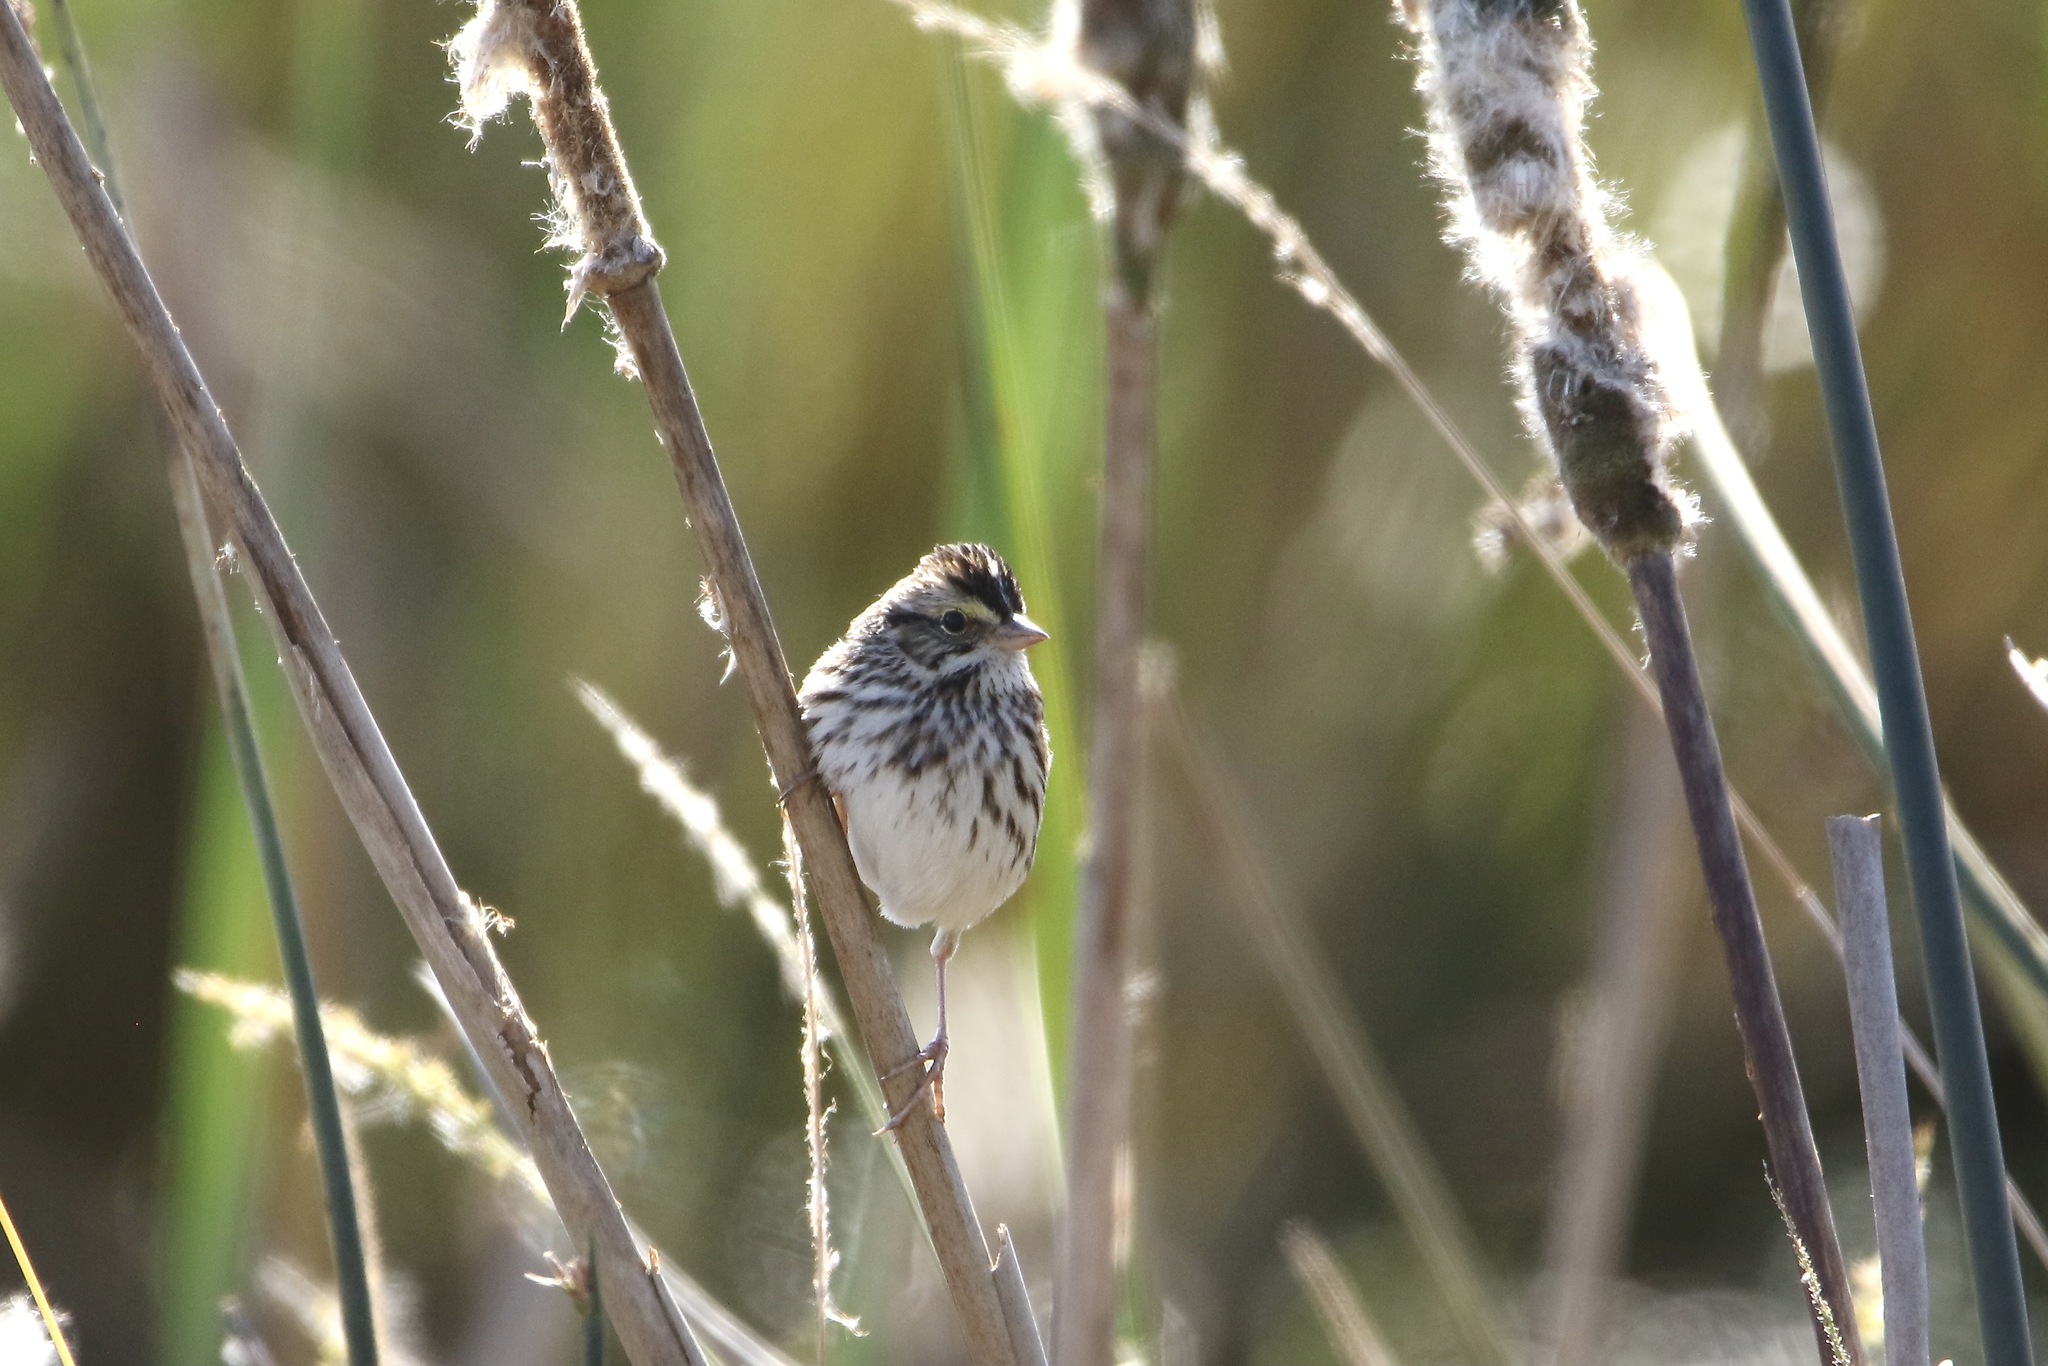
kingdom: Animalia
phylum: Chordata
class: Aves
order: Passeriformes
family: Passerellidae
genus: Passerculus
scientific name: Passerculus sandwichensis
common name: Savannah sparrow
